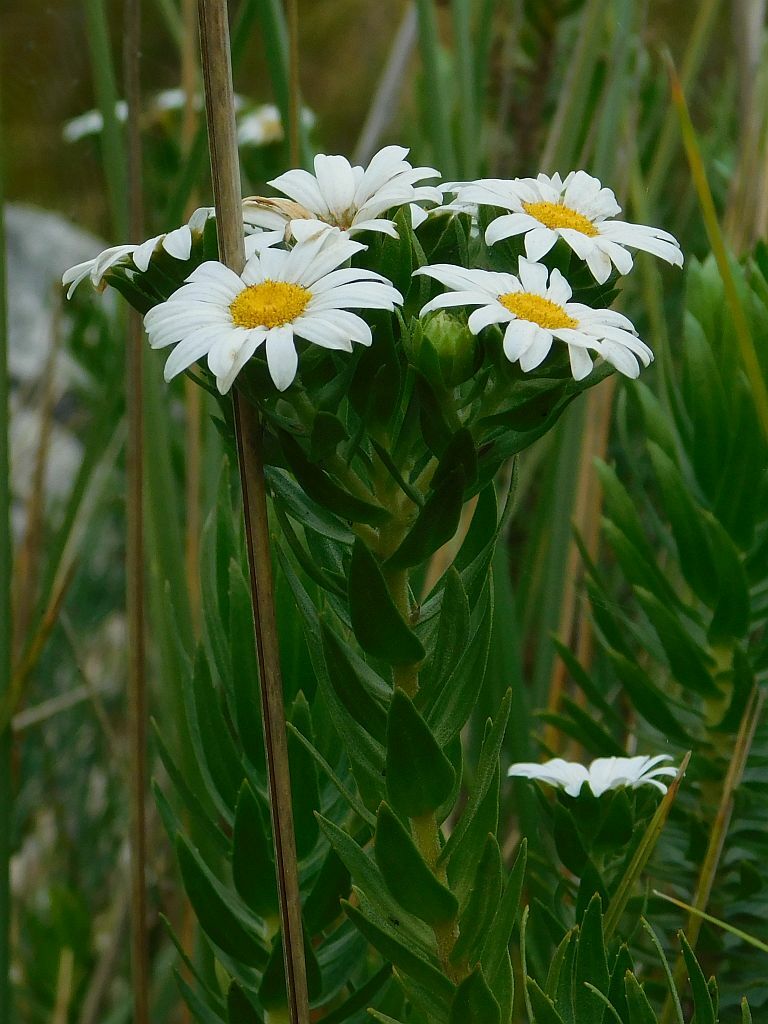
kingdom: Plantae
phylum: Tracheophyta
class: Magnoliopsida
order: Asterales
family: Asteraceae
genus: Osmitopsis
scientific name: Osmitopsis asteriscoides
